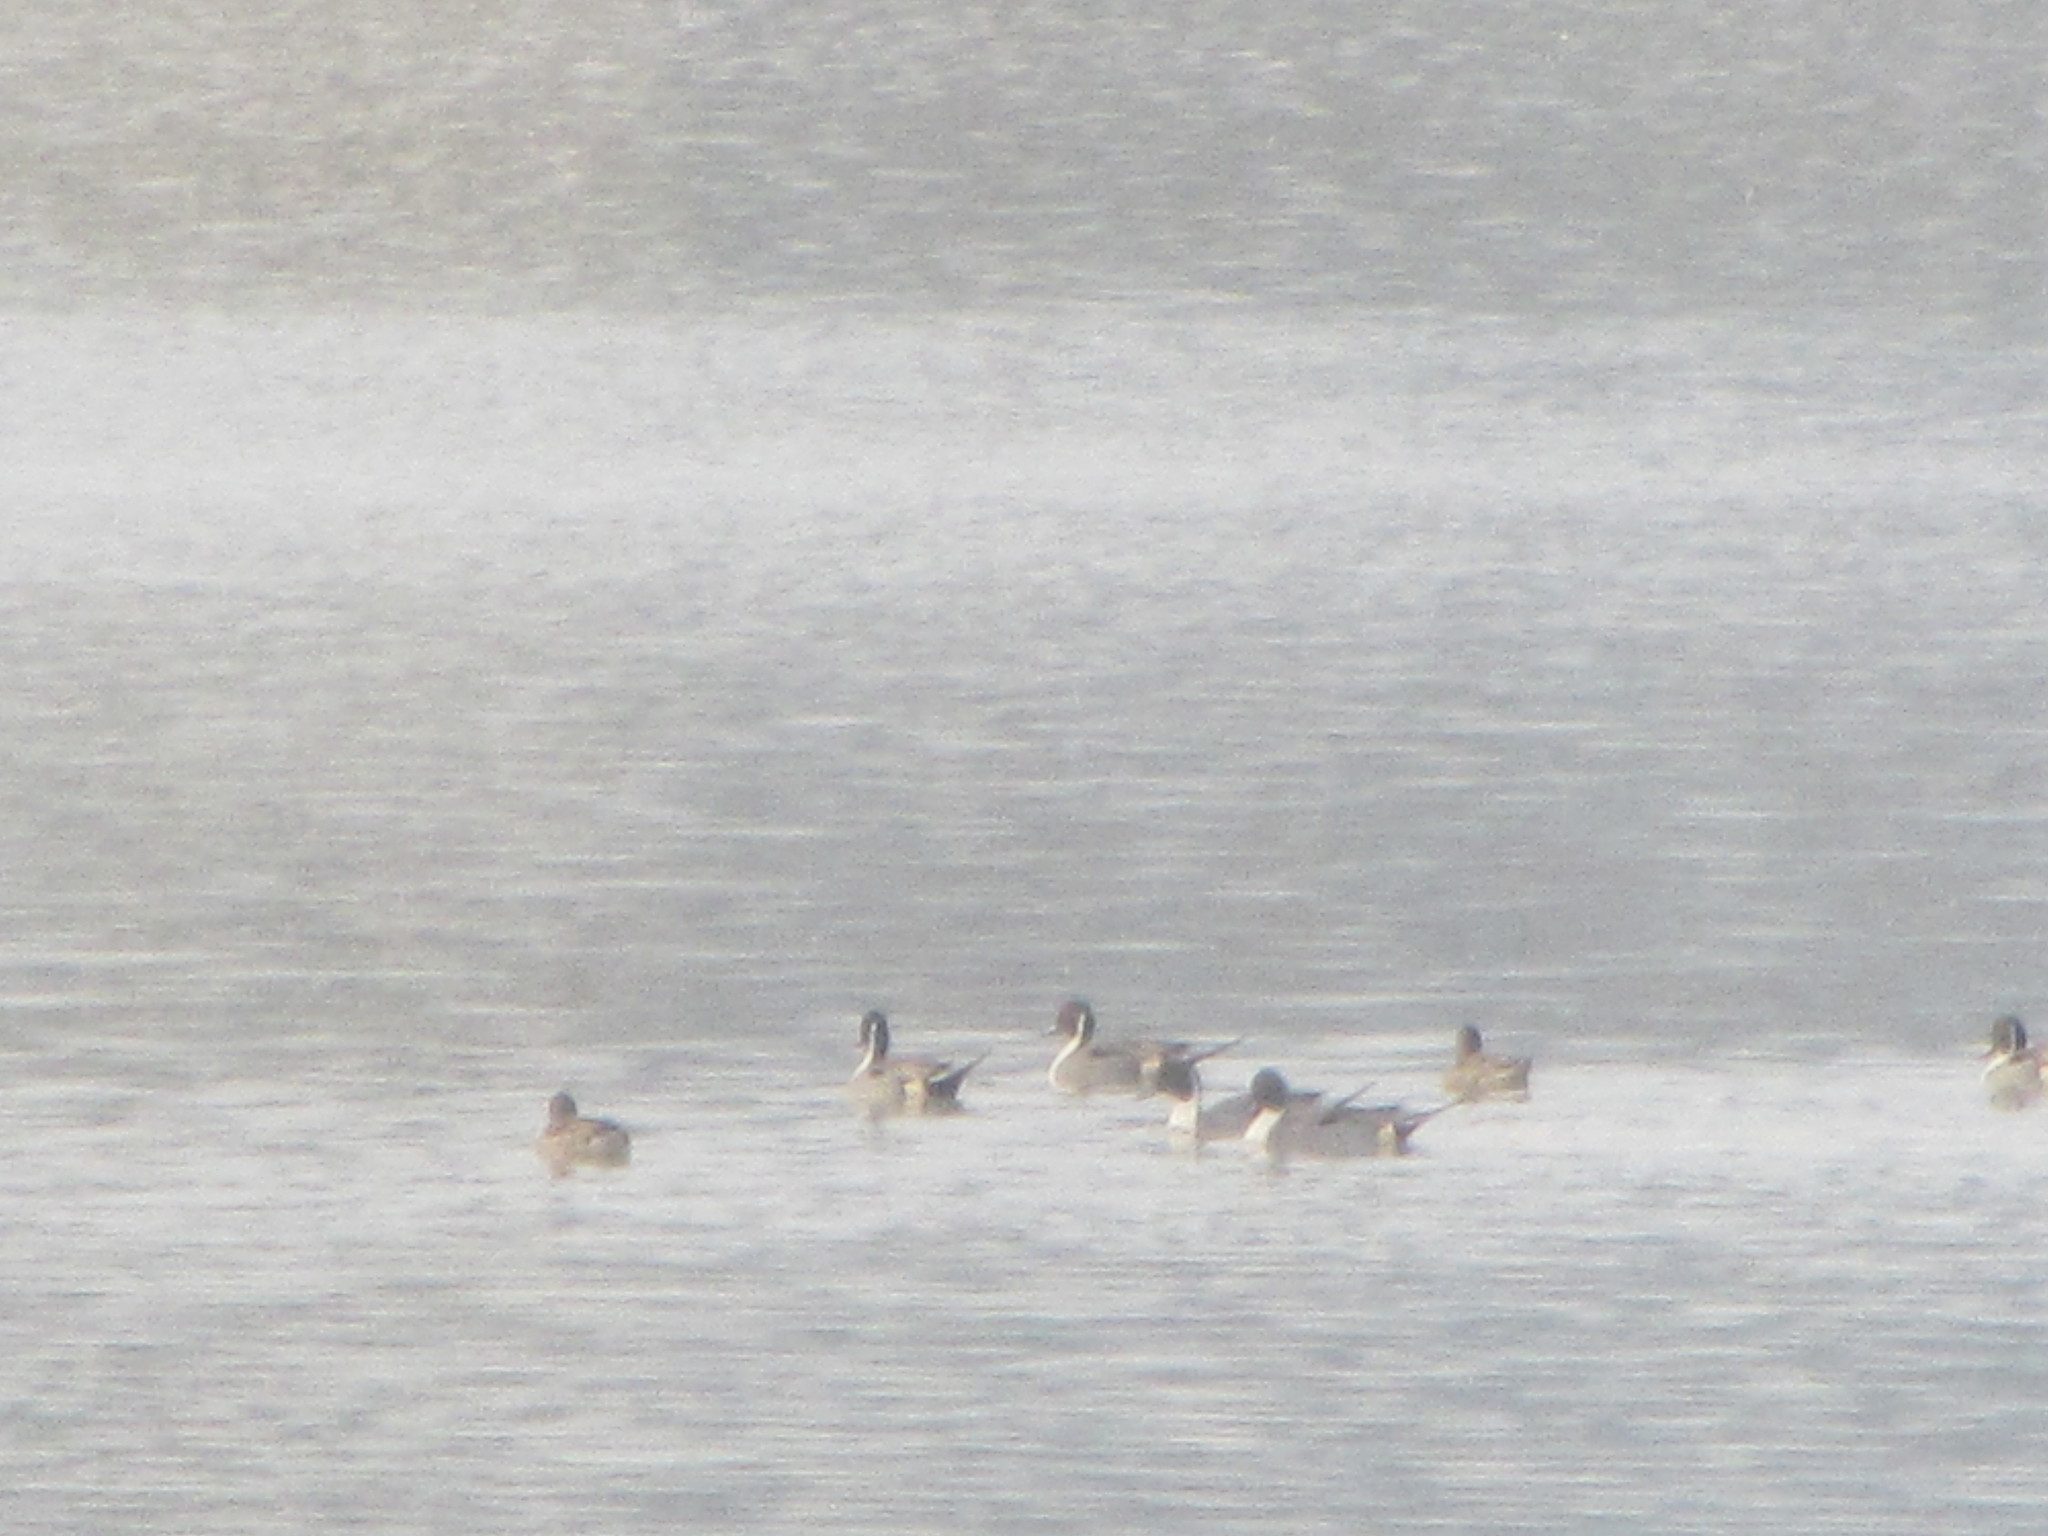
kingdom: Animalia
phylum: Chordata
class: Aves
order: Anseriformes
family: Anatidae
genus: Anas
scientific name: Anas acuta
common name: Northern pintail
